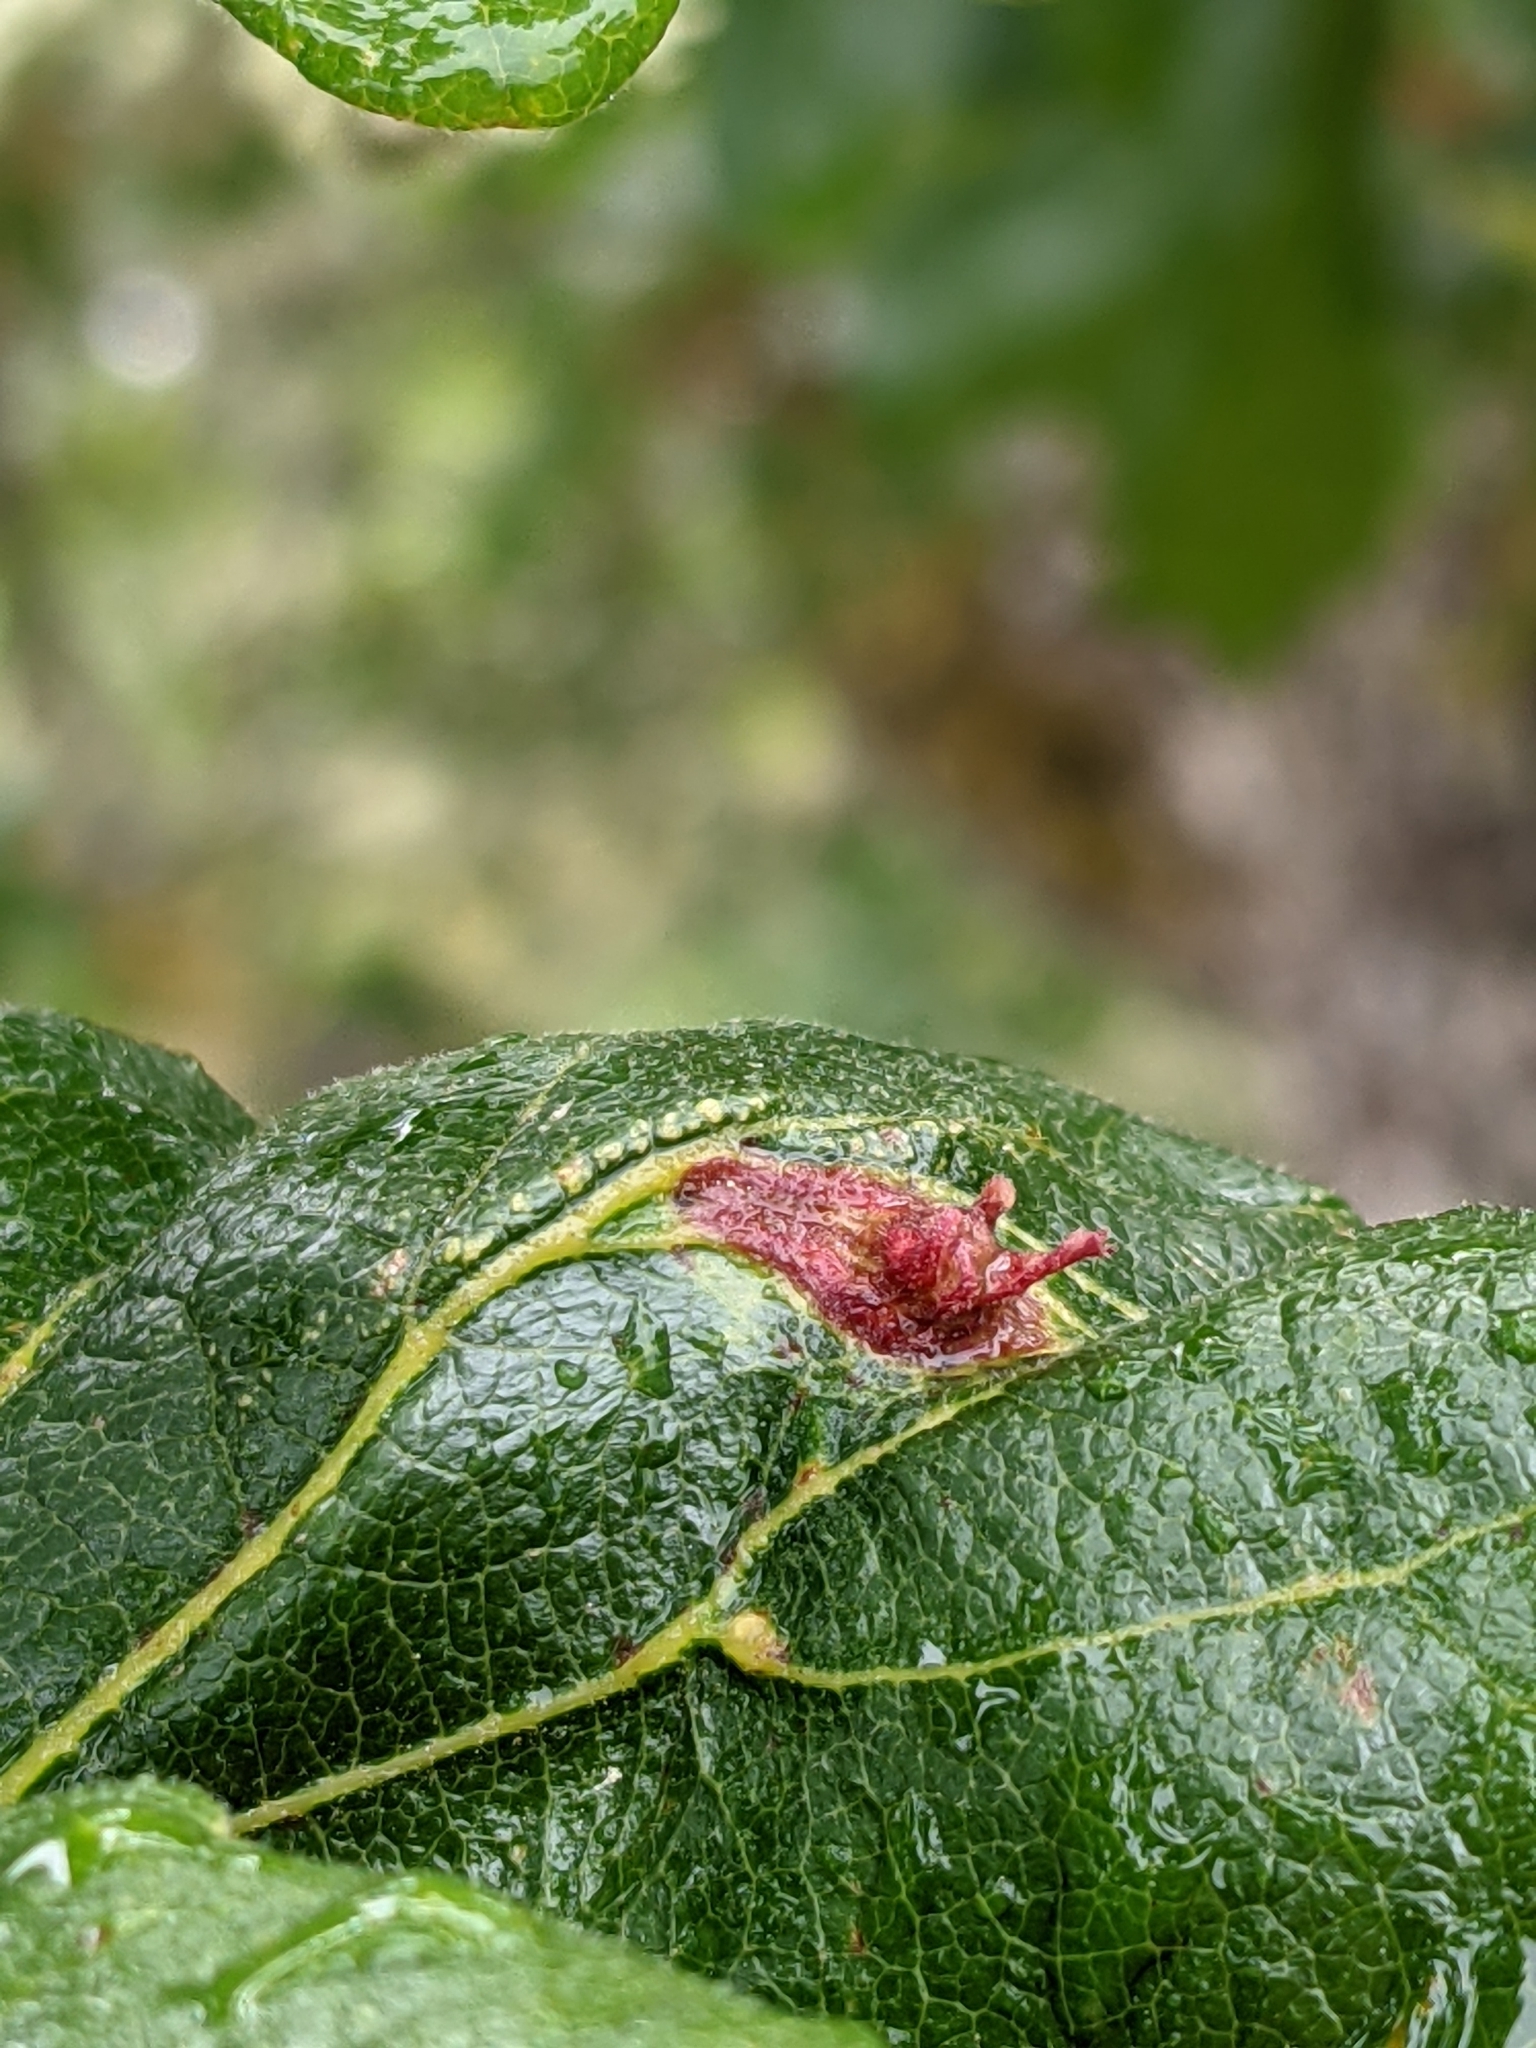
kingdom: Animalia
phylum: Arthropoda
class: Insecta
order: Hymenoptera
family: Cynipidae
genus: Andricus
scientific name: Andricus
